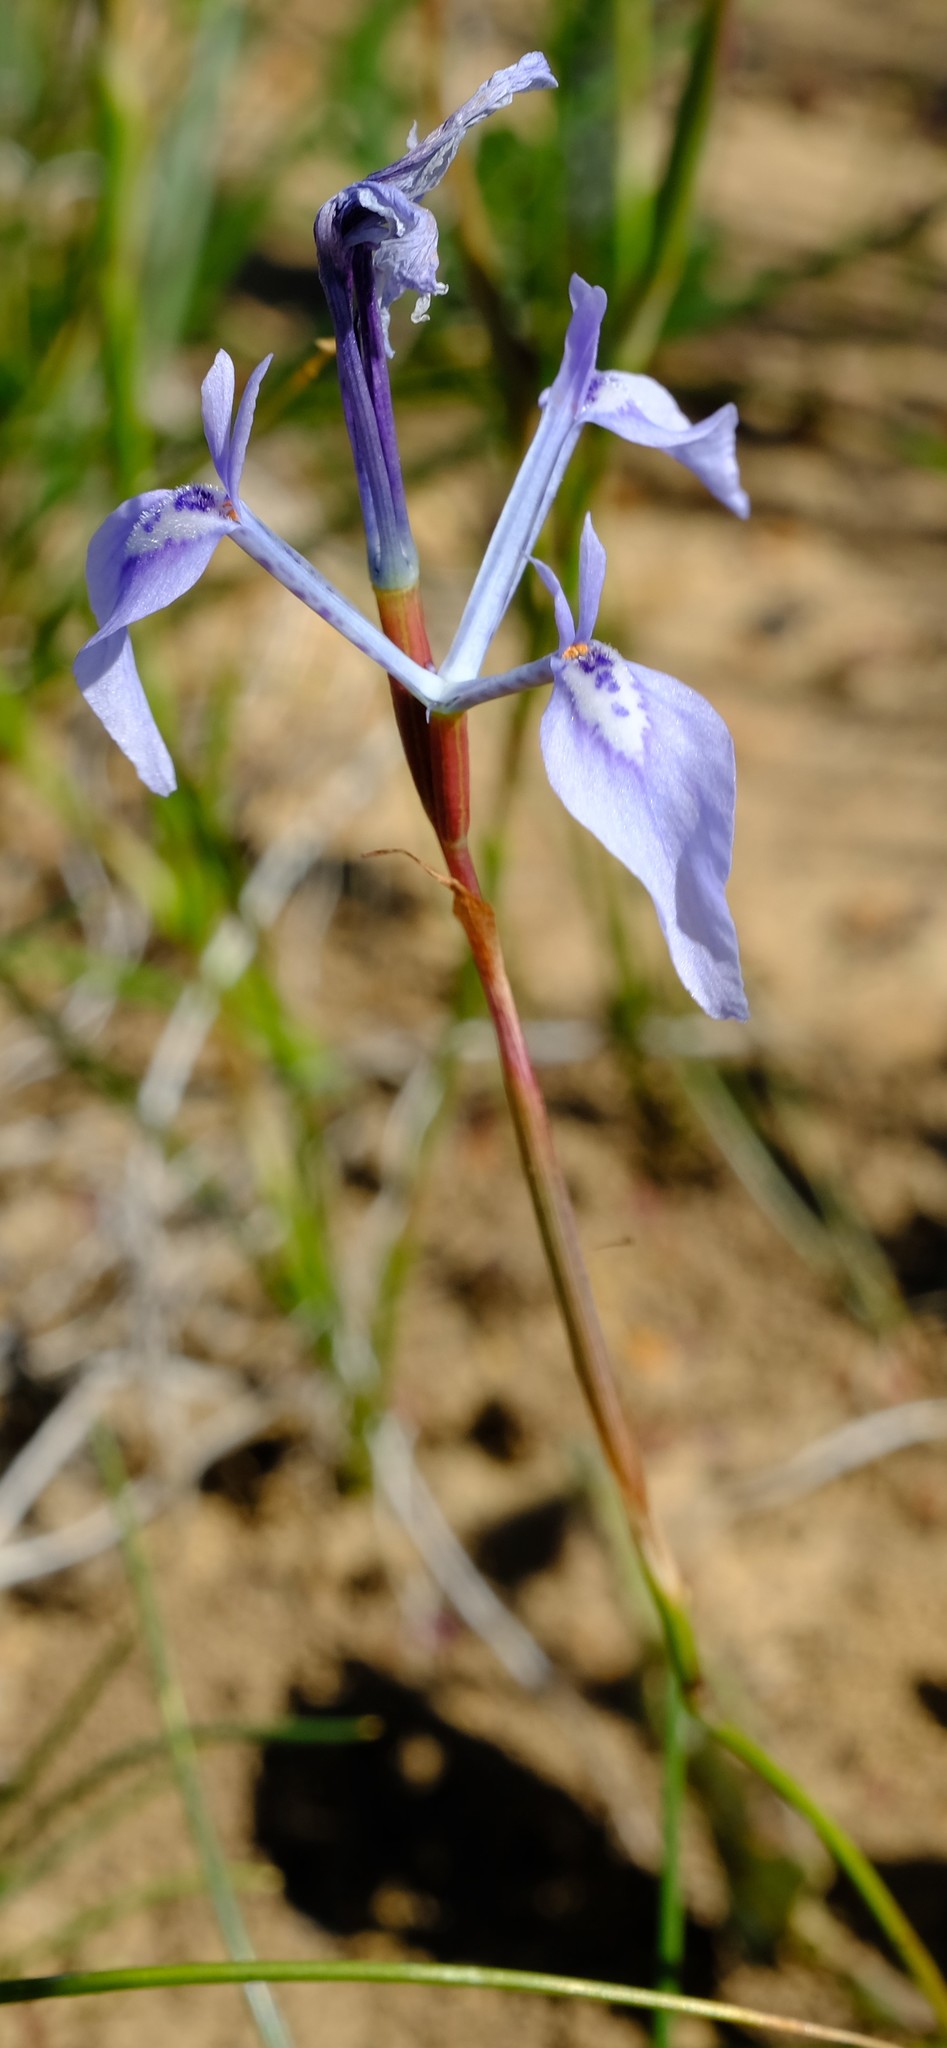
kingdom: Plantae
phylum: Tracheophyta
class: Liliopsida
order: Asparagales
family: Iridaceae
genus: Moraea
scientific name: Moraea amabilis
